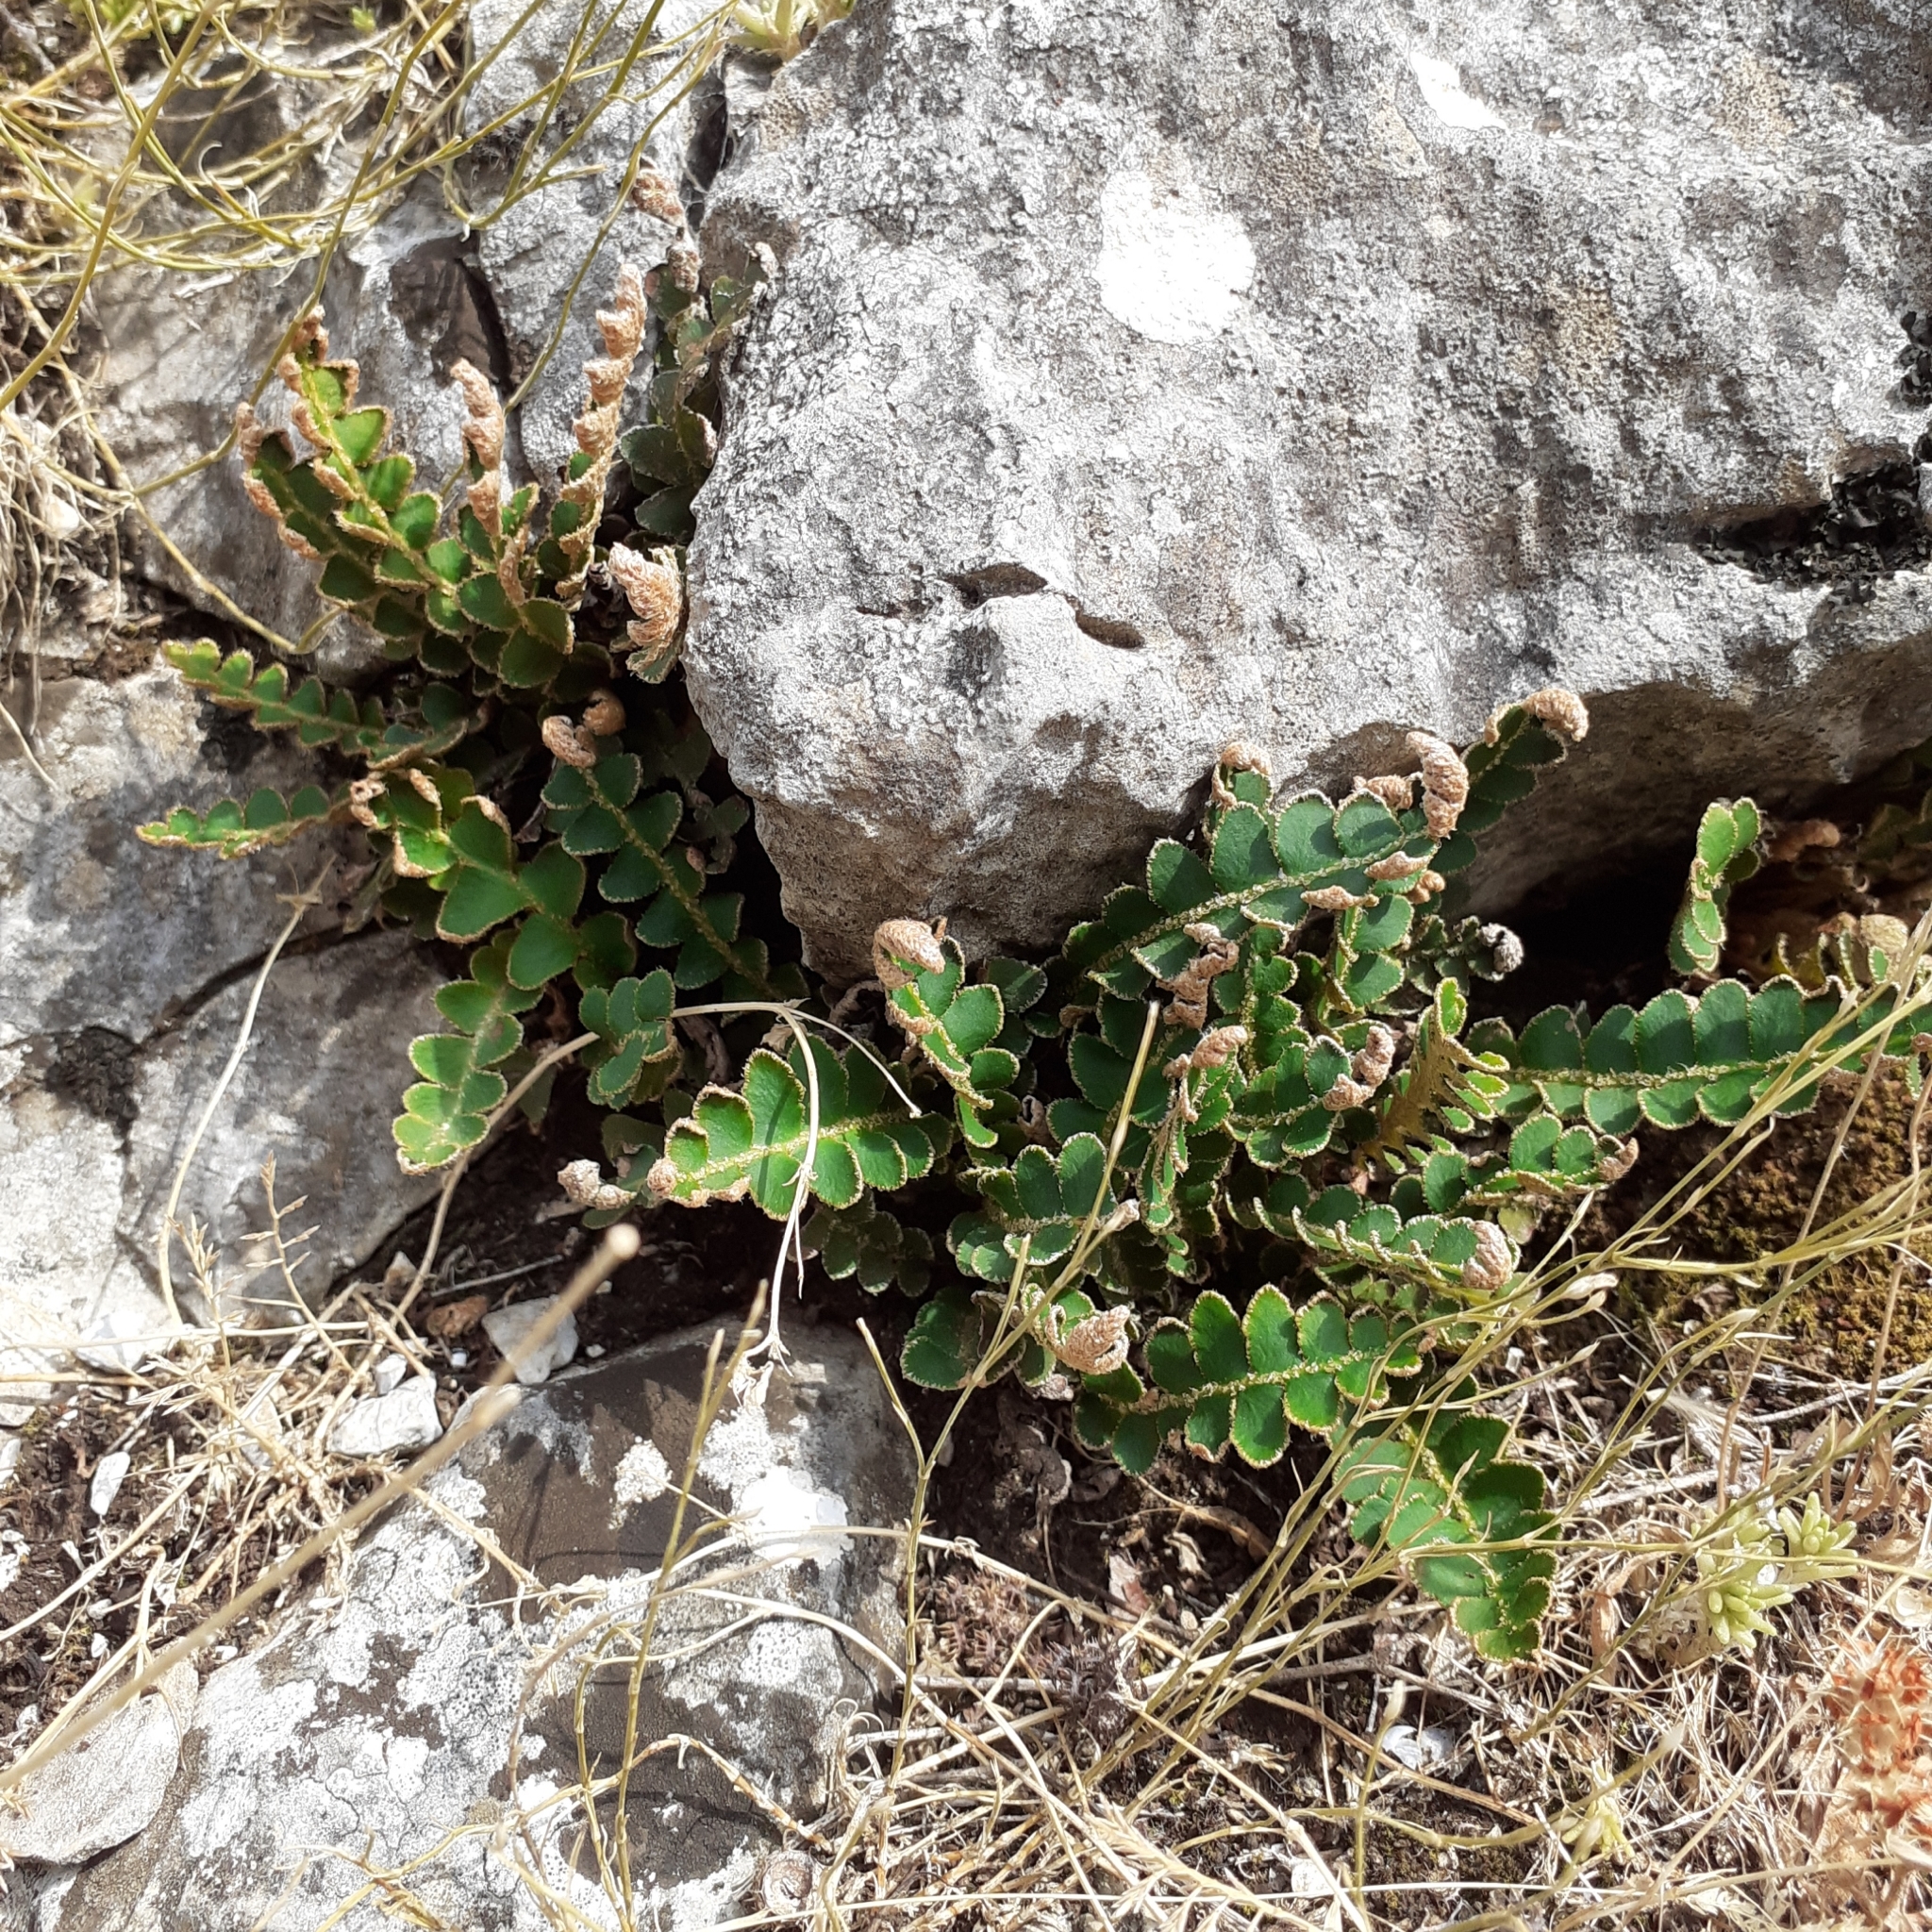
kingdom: Plantae
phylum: Tracheophyta
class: Polypodiopsida
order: Polypodiales
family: Aspleniaceae
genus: Asplenium
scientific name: Asplenium ceterach
